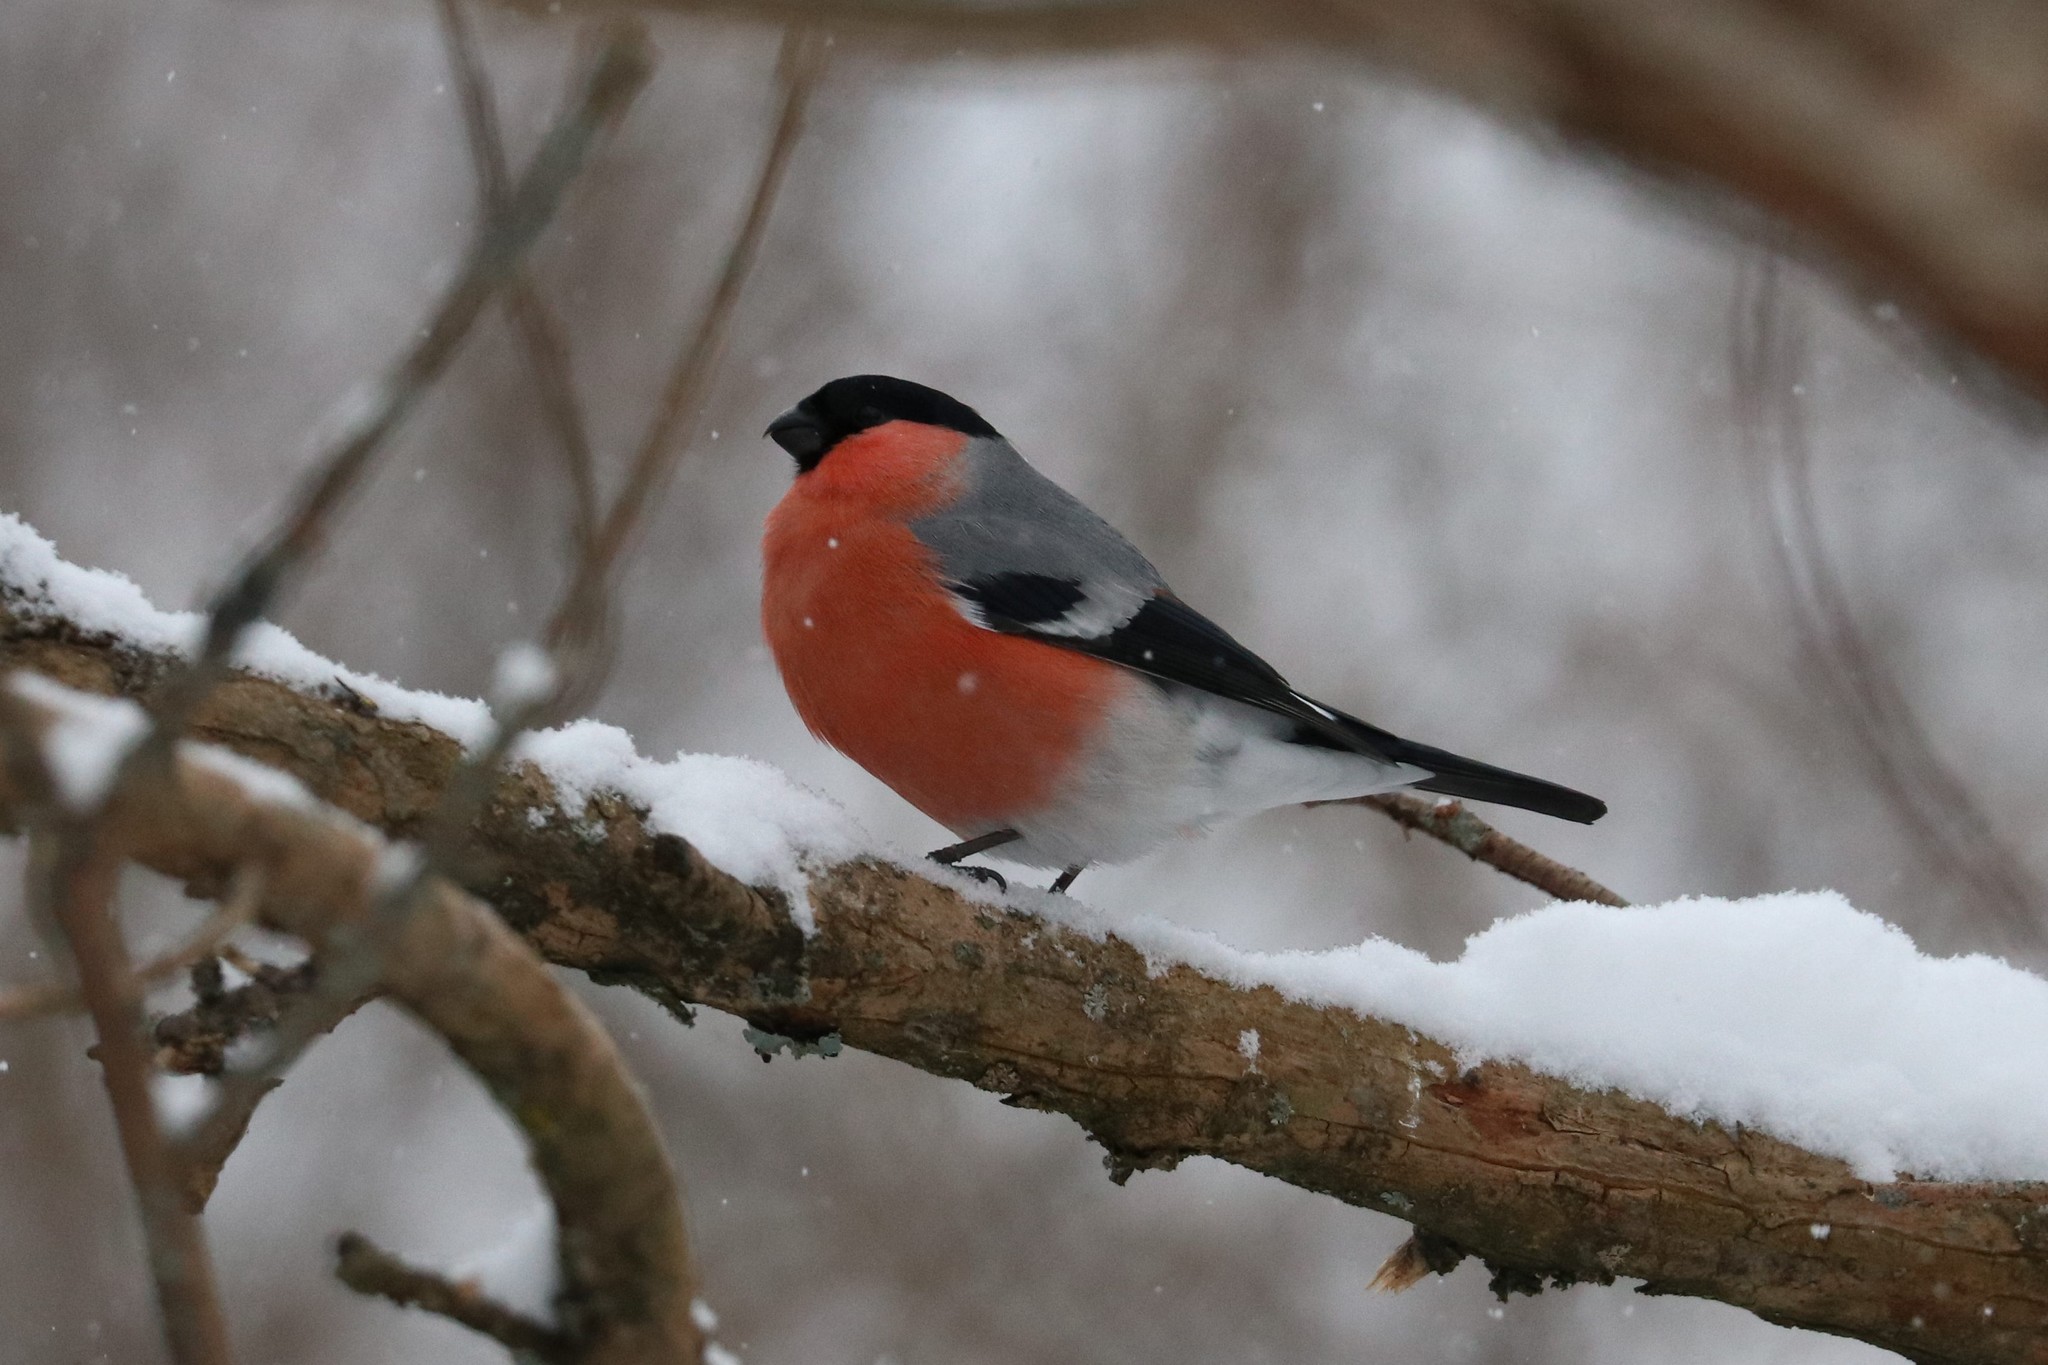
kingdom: Animalia
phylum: Chordata
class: Aves
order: Passeriformes
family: Fringillidae
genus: Pyrrhula
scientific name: Pyrrhula pyrrhula
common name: Eurasian bullfinch
